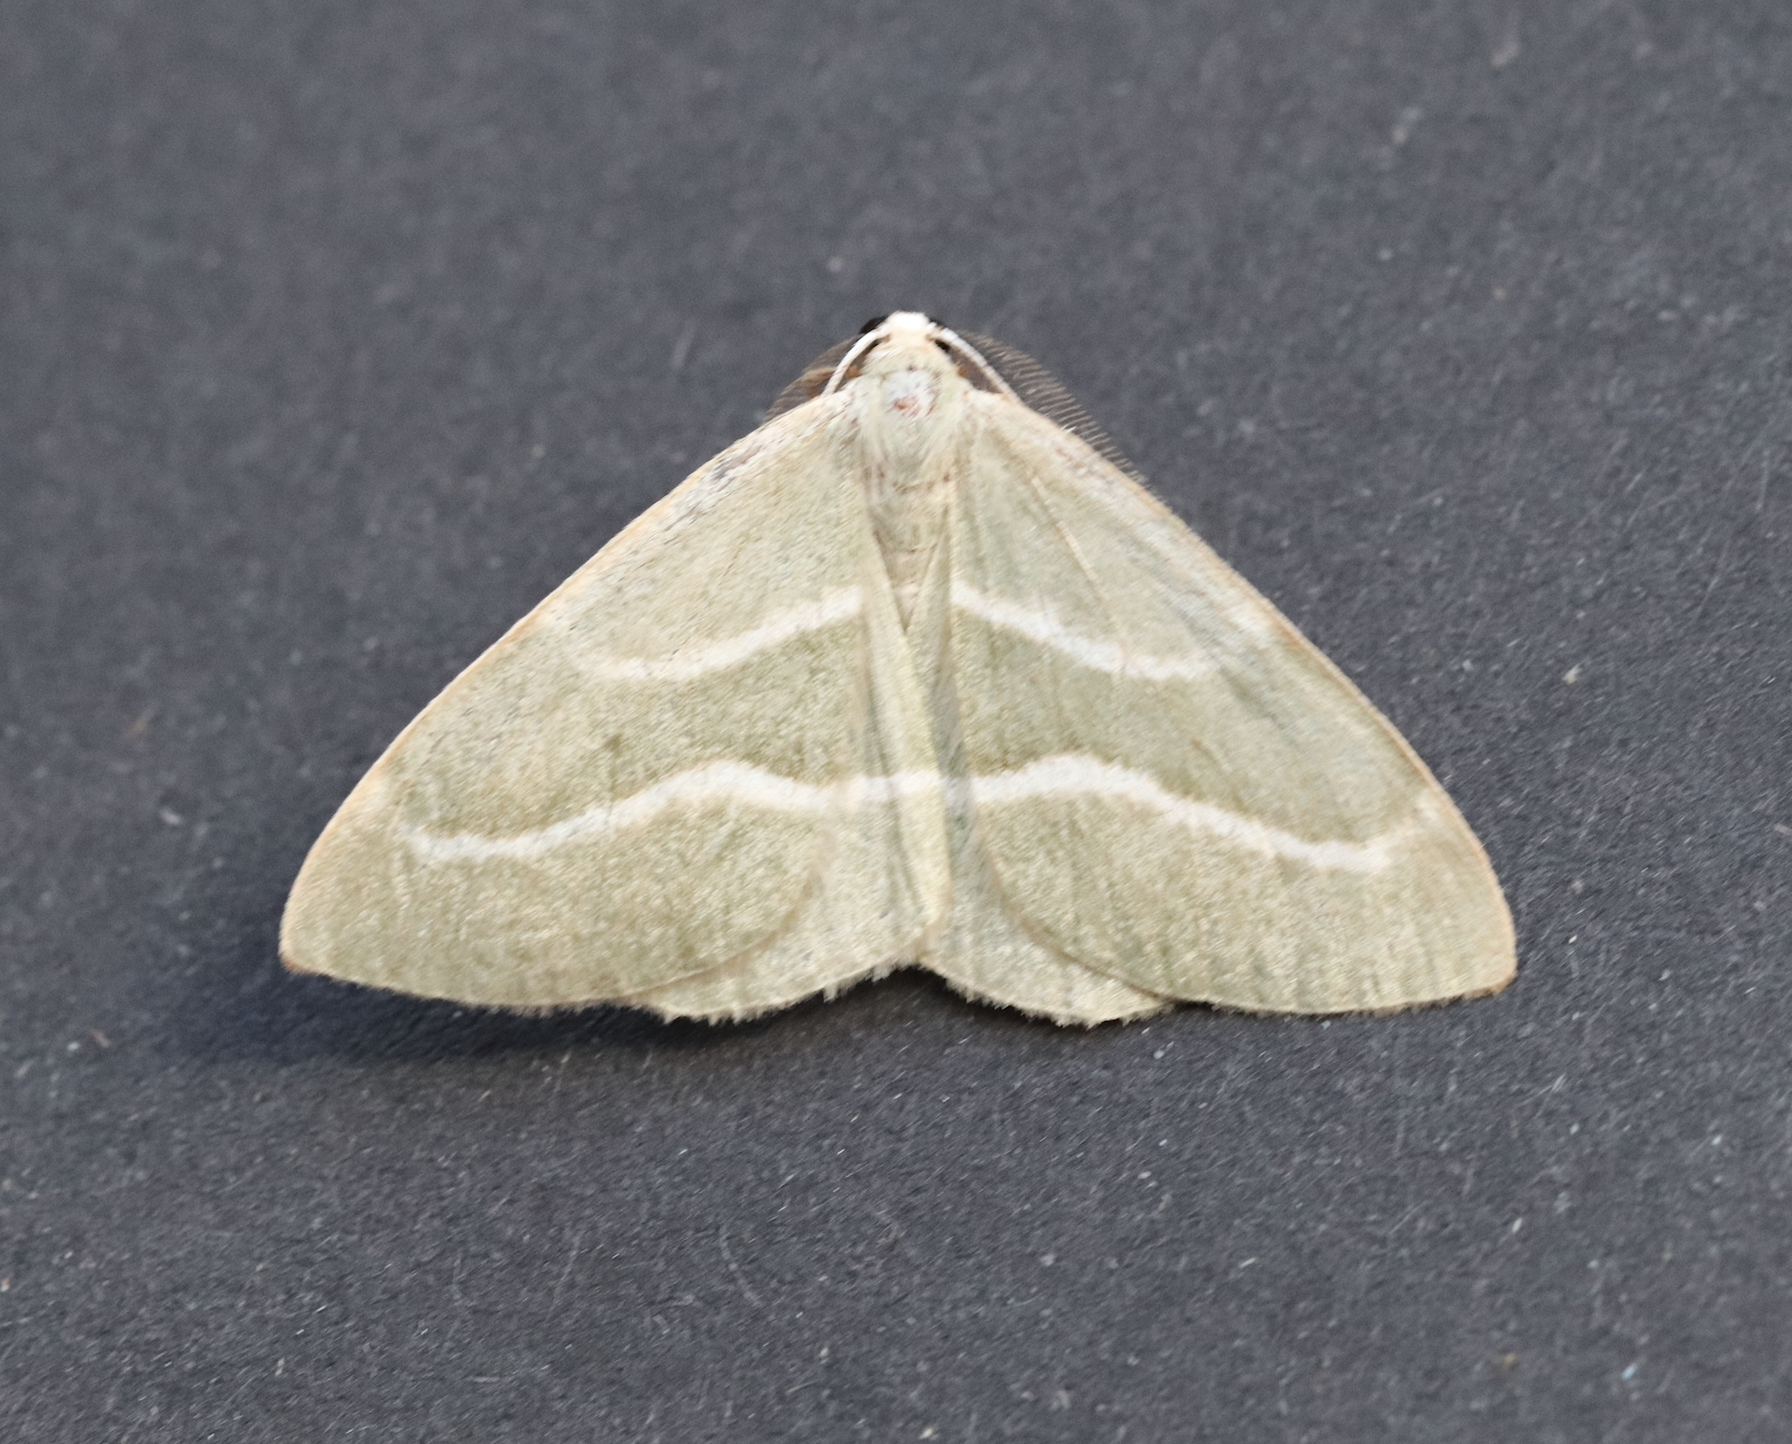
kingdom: Animalia
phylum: Arthropoda
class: Insecta
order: Lepidoptera
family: Geometridae
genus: Hylaea
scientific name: Hylaea fasciaria
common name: Barred red
